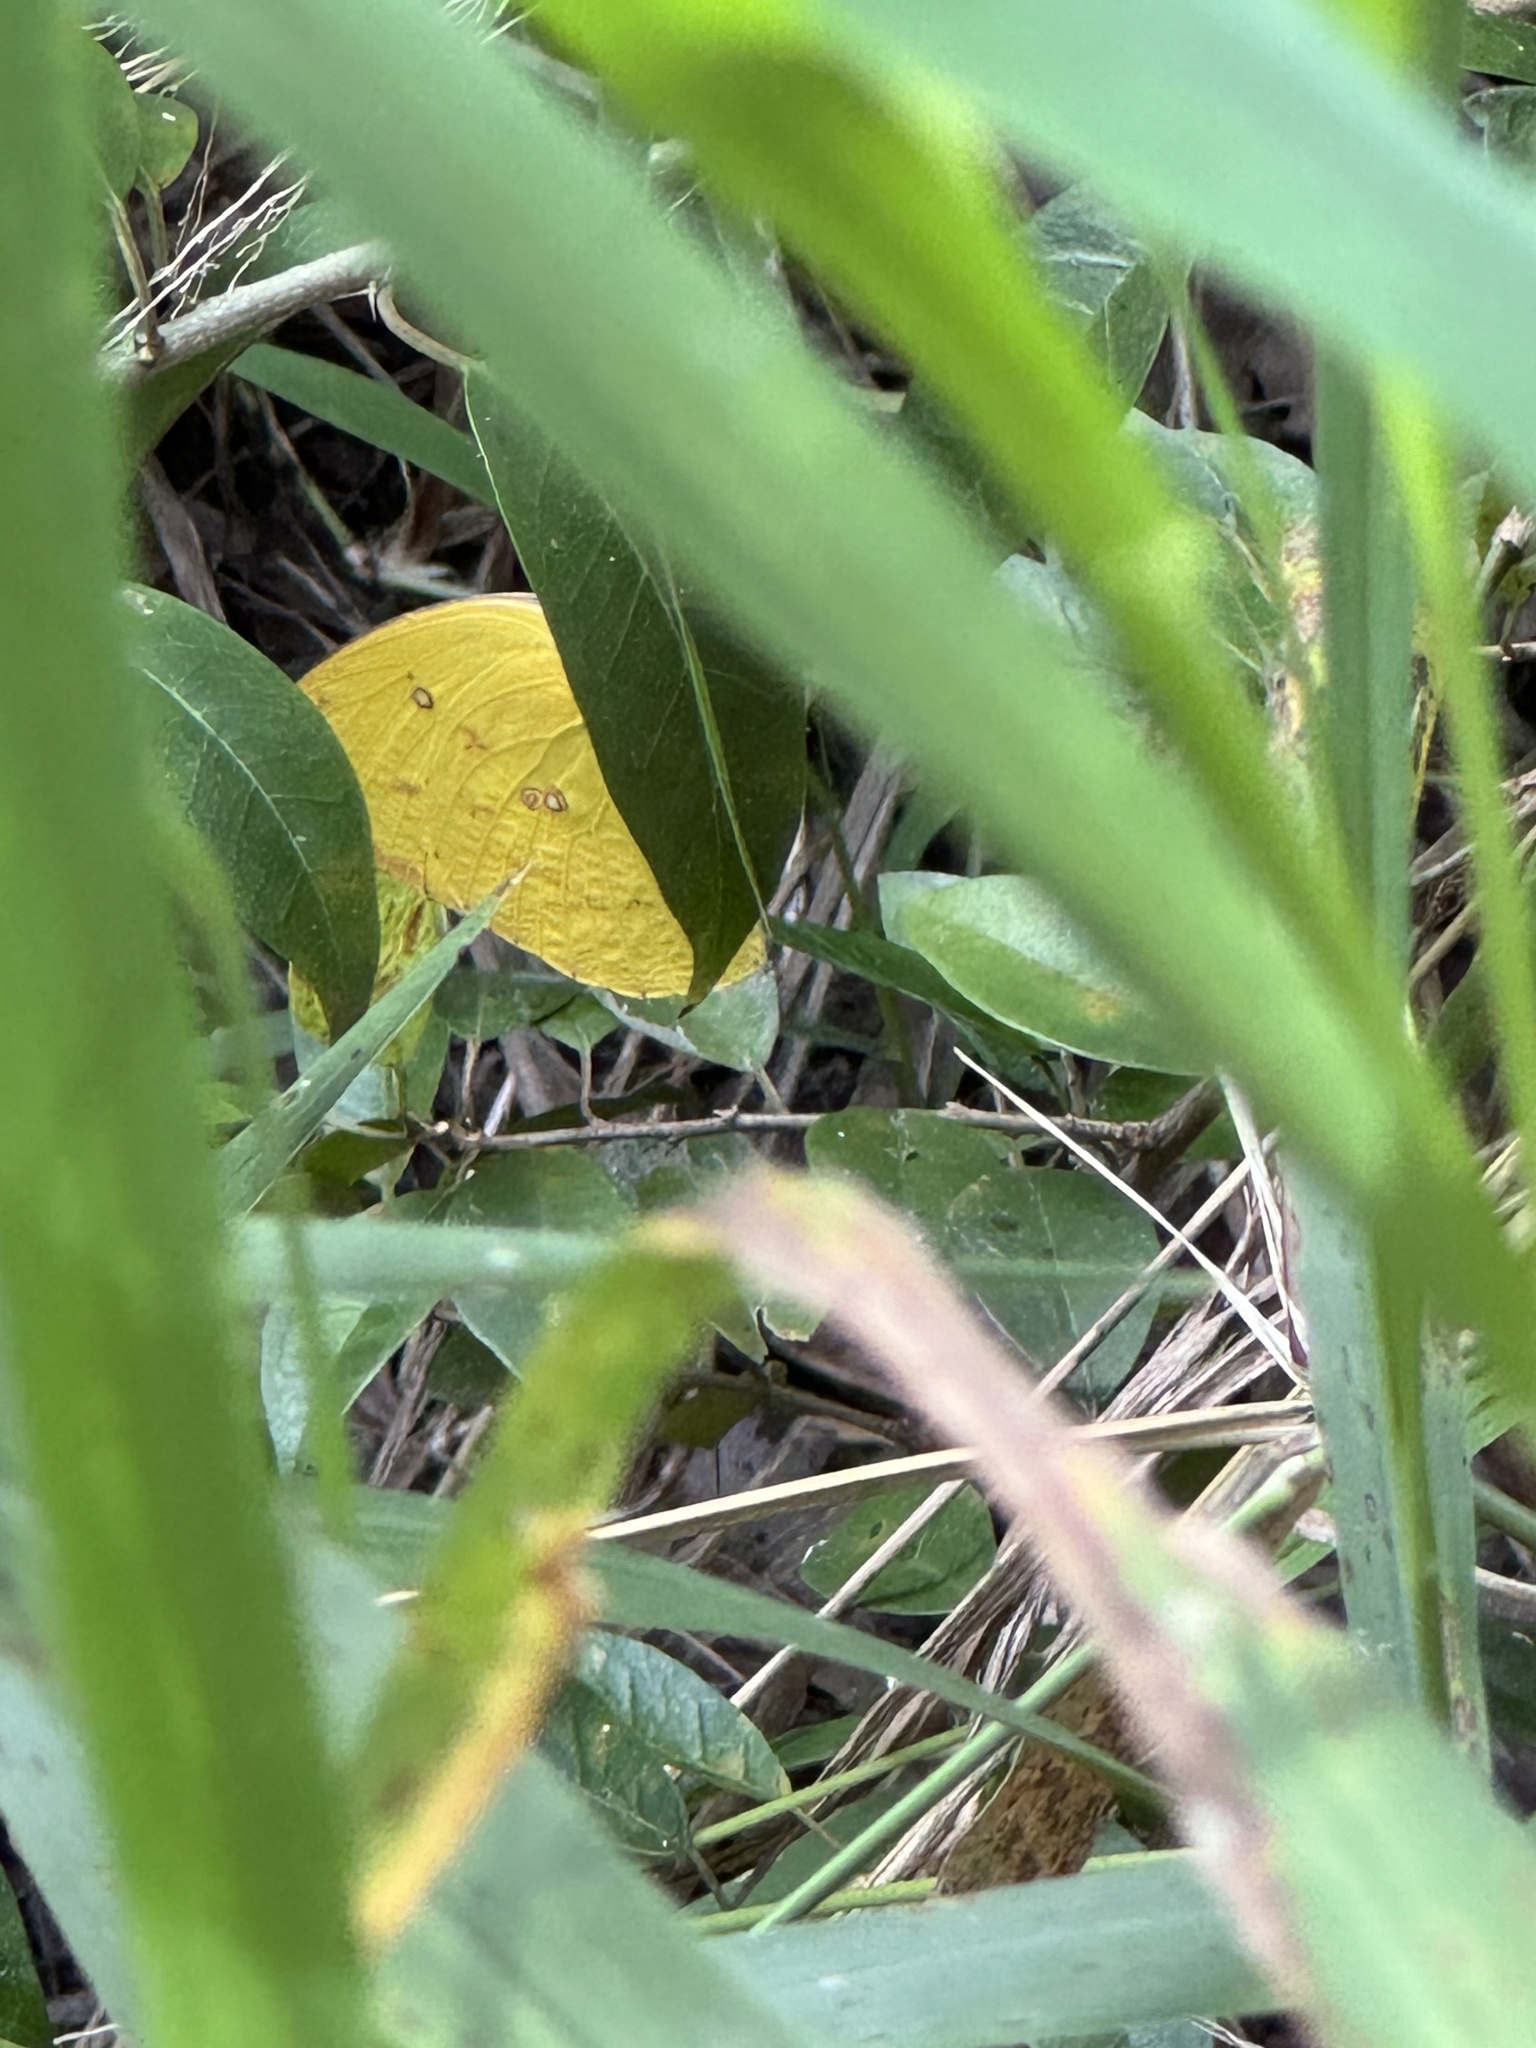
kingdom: Animalia
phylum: Arthropoda
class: Insecta
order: Lepidoptera
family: Pieridae
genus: Catopsilia
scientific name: Catopsilia pomona
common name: Common emigrant
